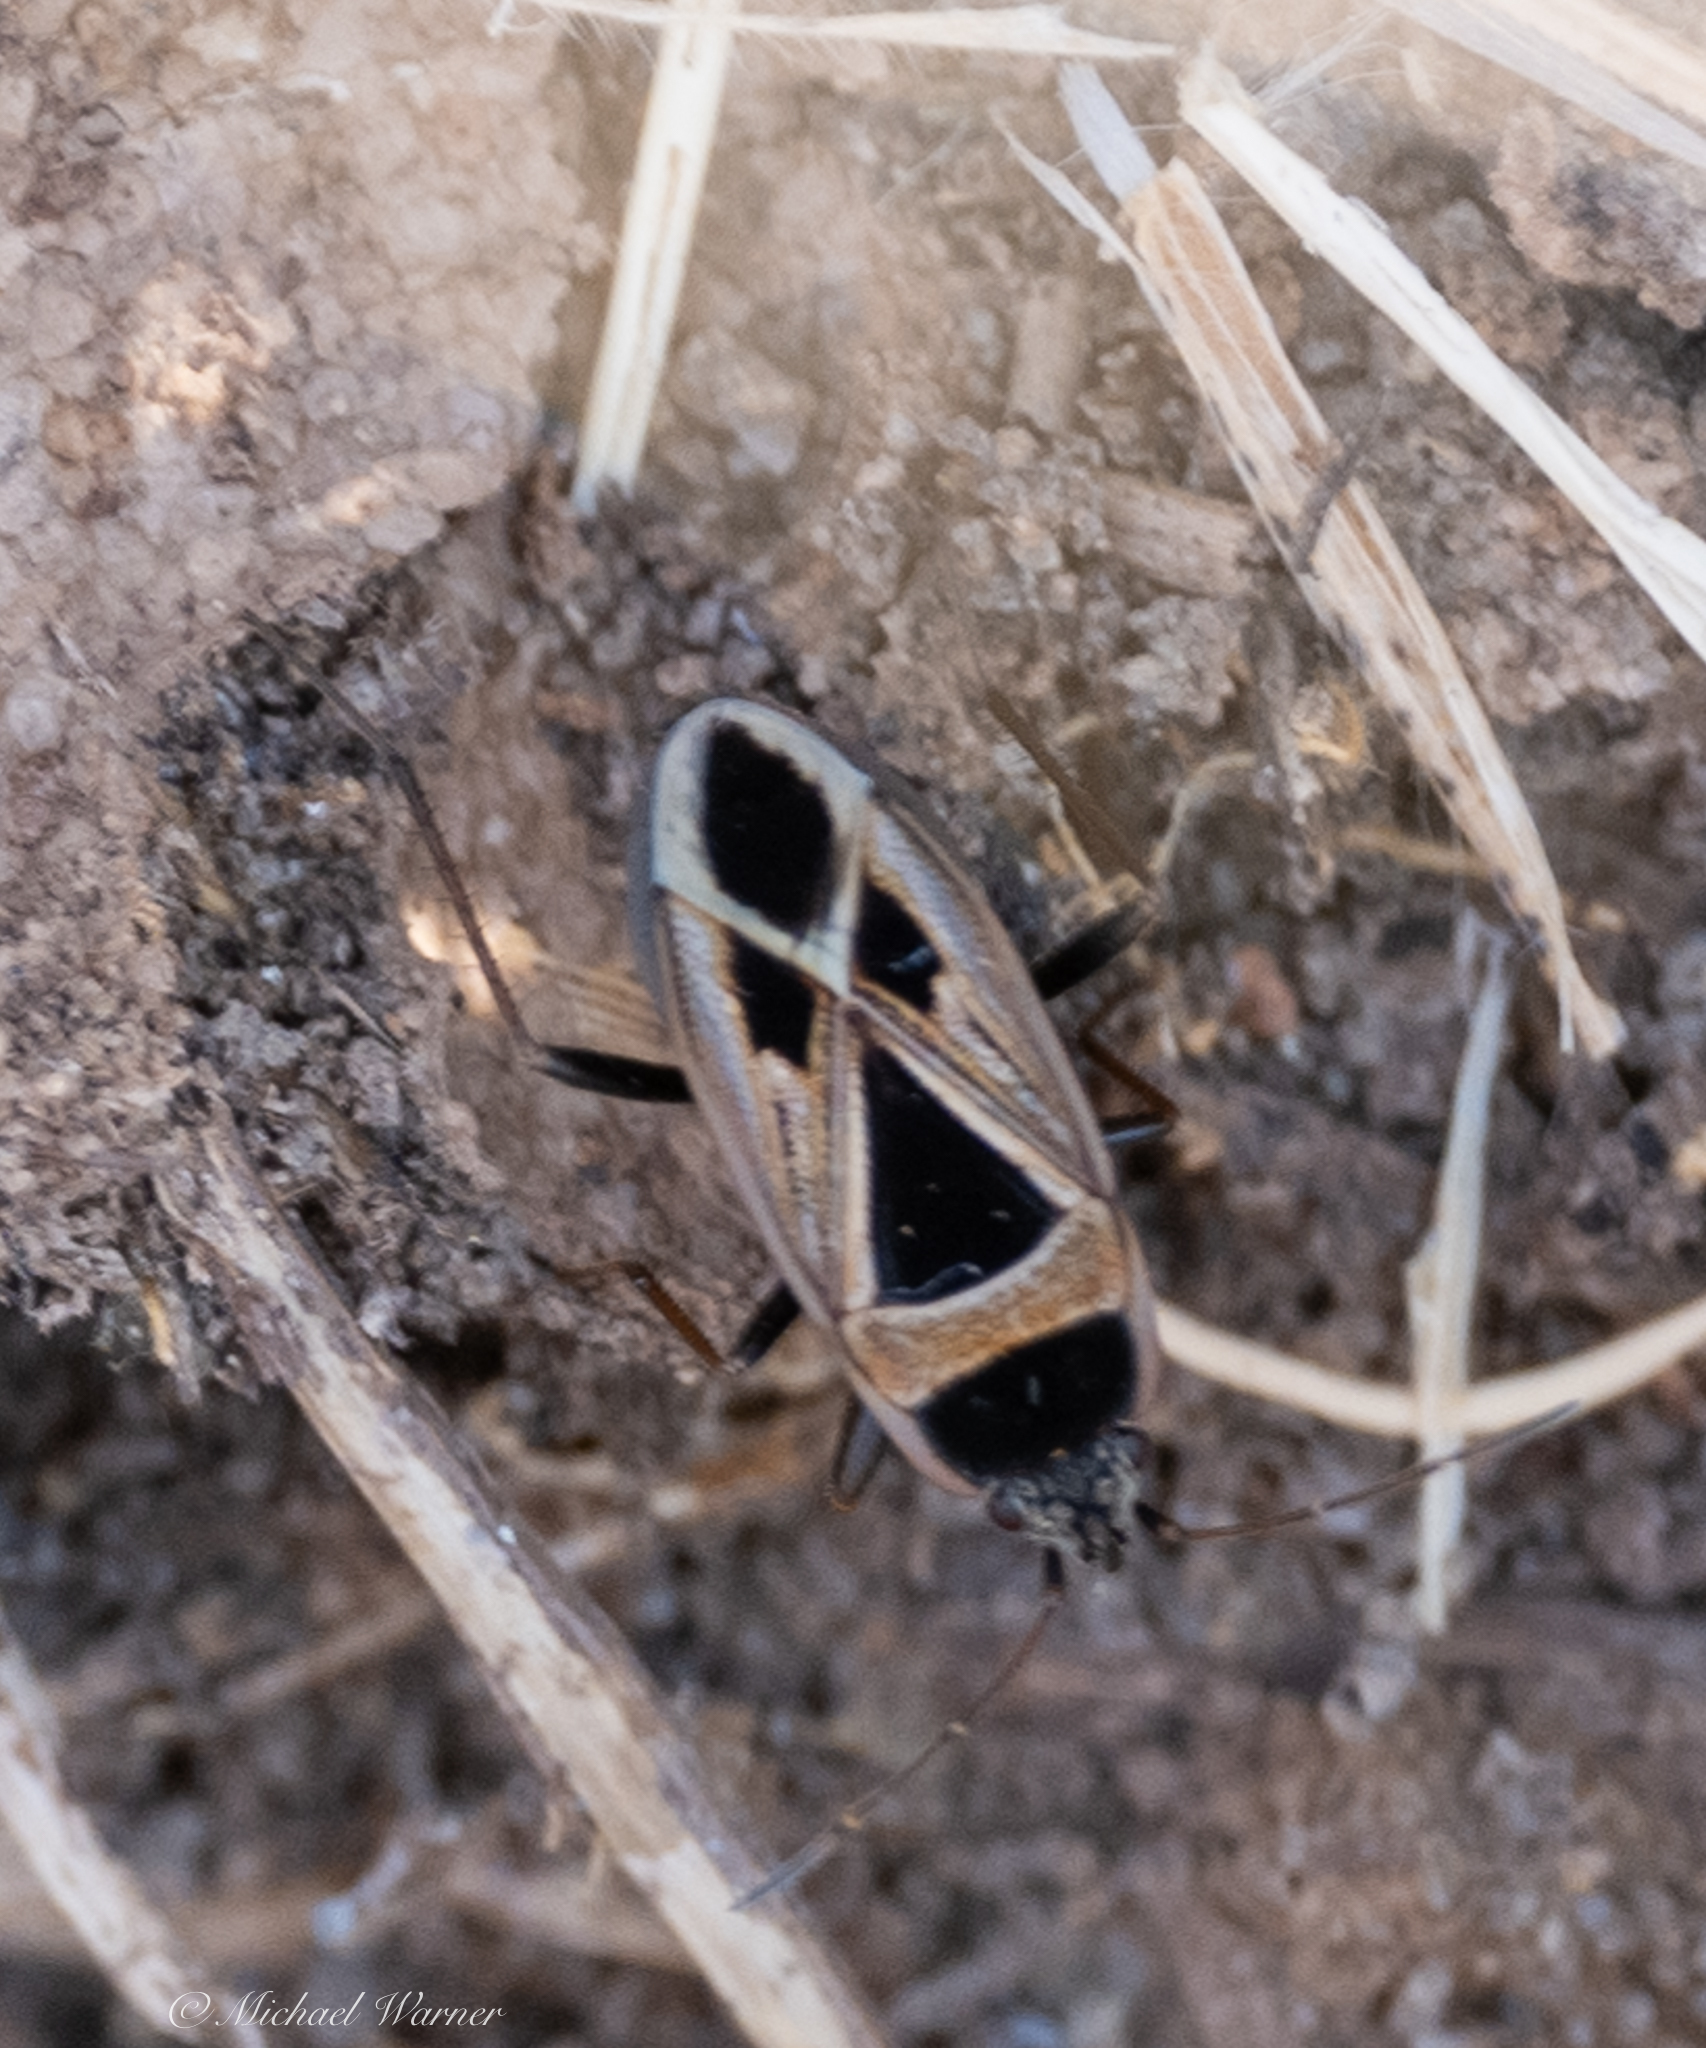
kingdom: Animalia
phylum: Arthropoda
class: Insecta
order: Hemiptera
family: Rhyparochromidae
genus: Xanthochilus
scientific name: Xanthochilus saturnius
